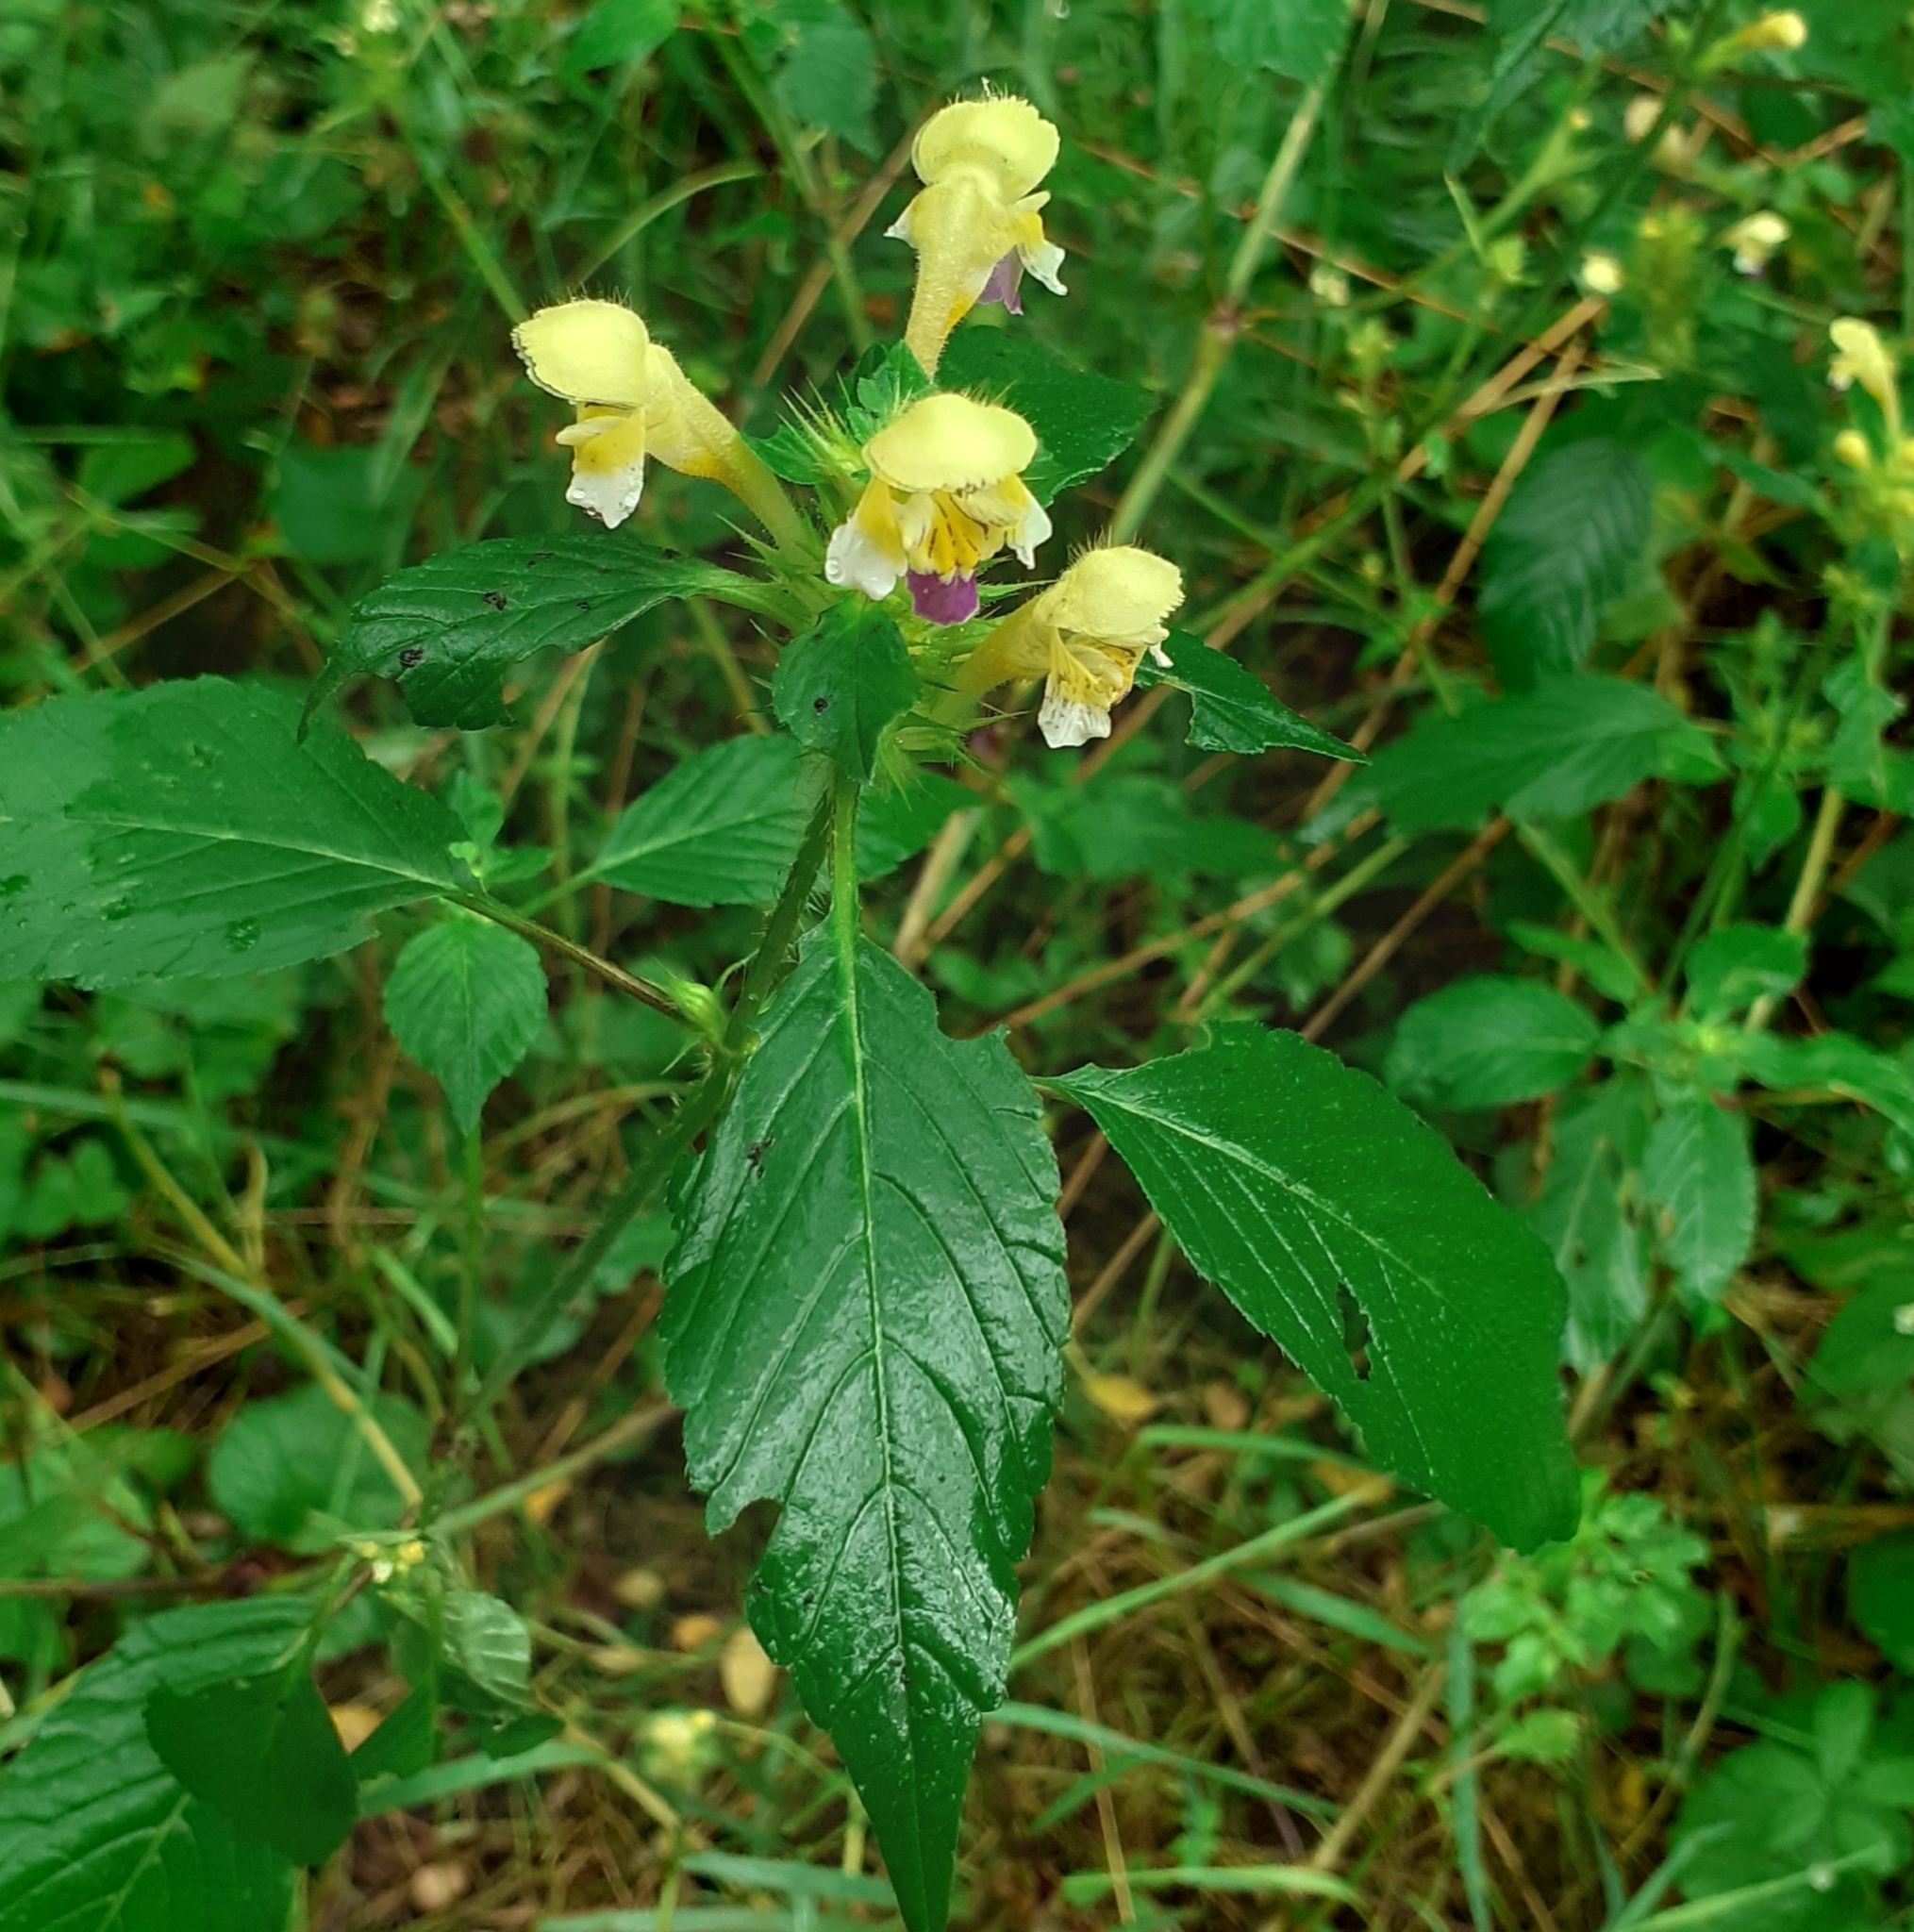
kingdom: Plantae
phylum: Tracheophyta
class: Magnoliopsida
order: Lamiales
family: Lamiaceae
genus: Galeopsis
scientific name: Galeopsis speciosa
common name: Large-flowered hemp-nettle
